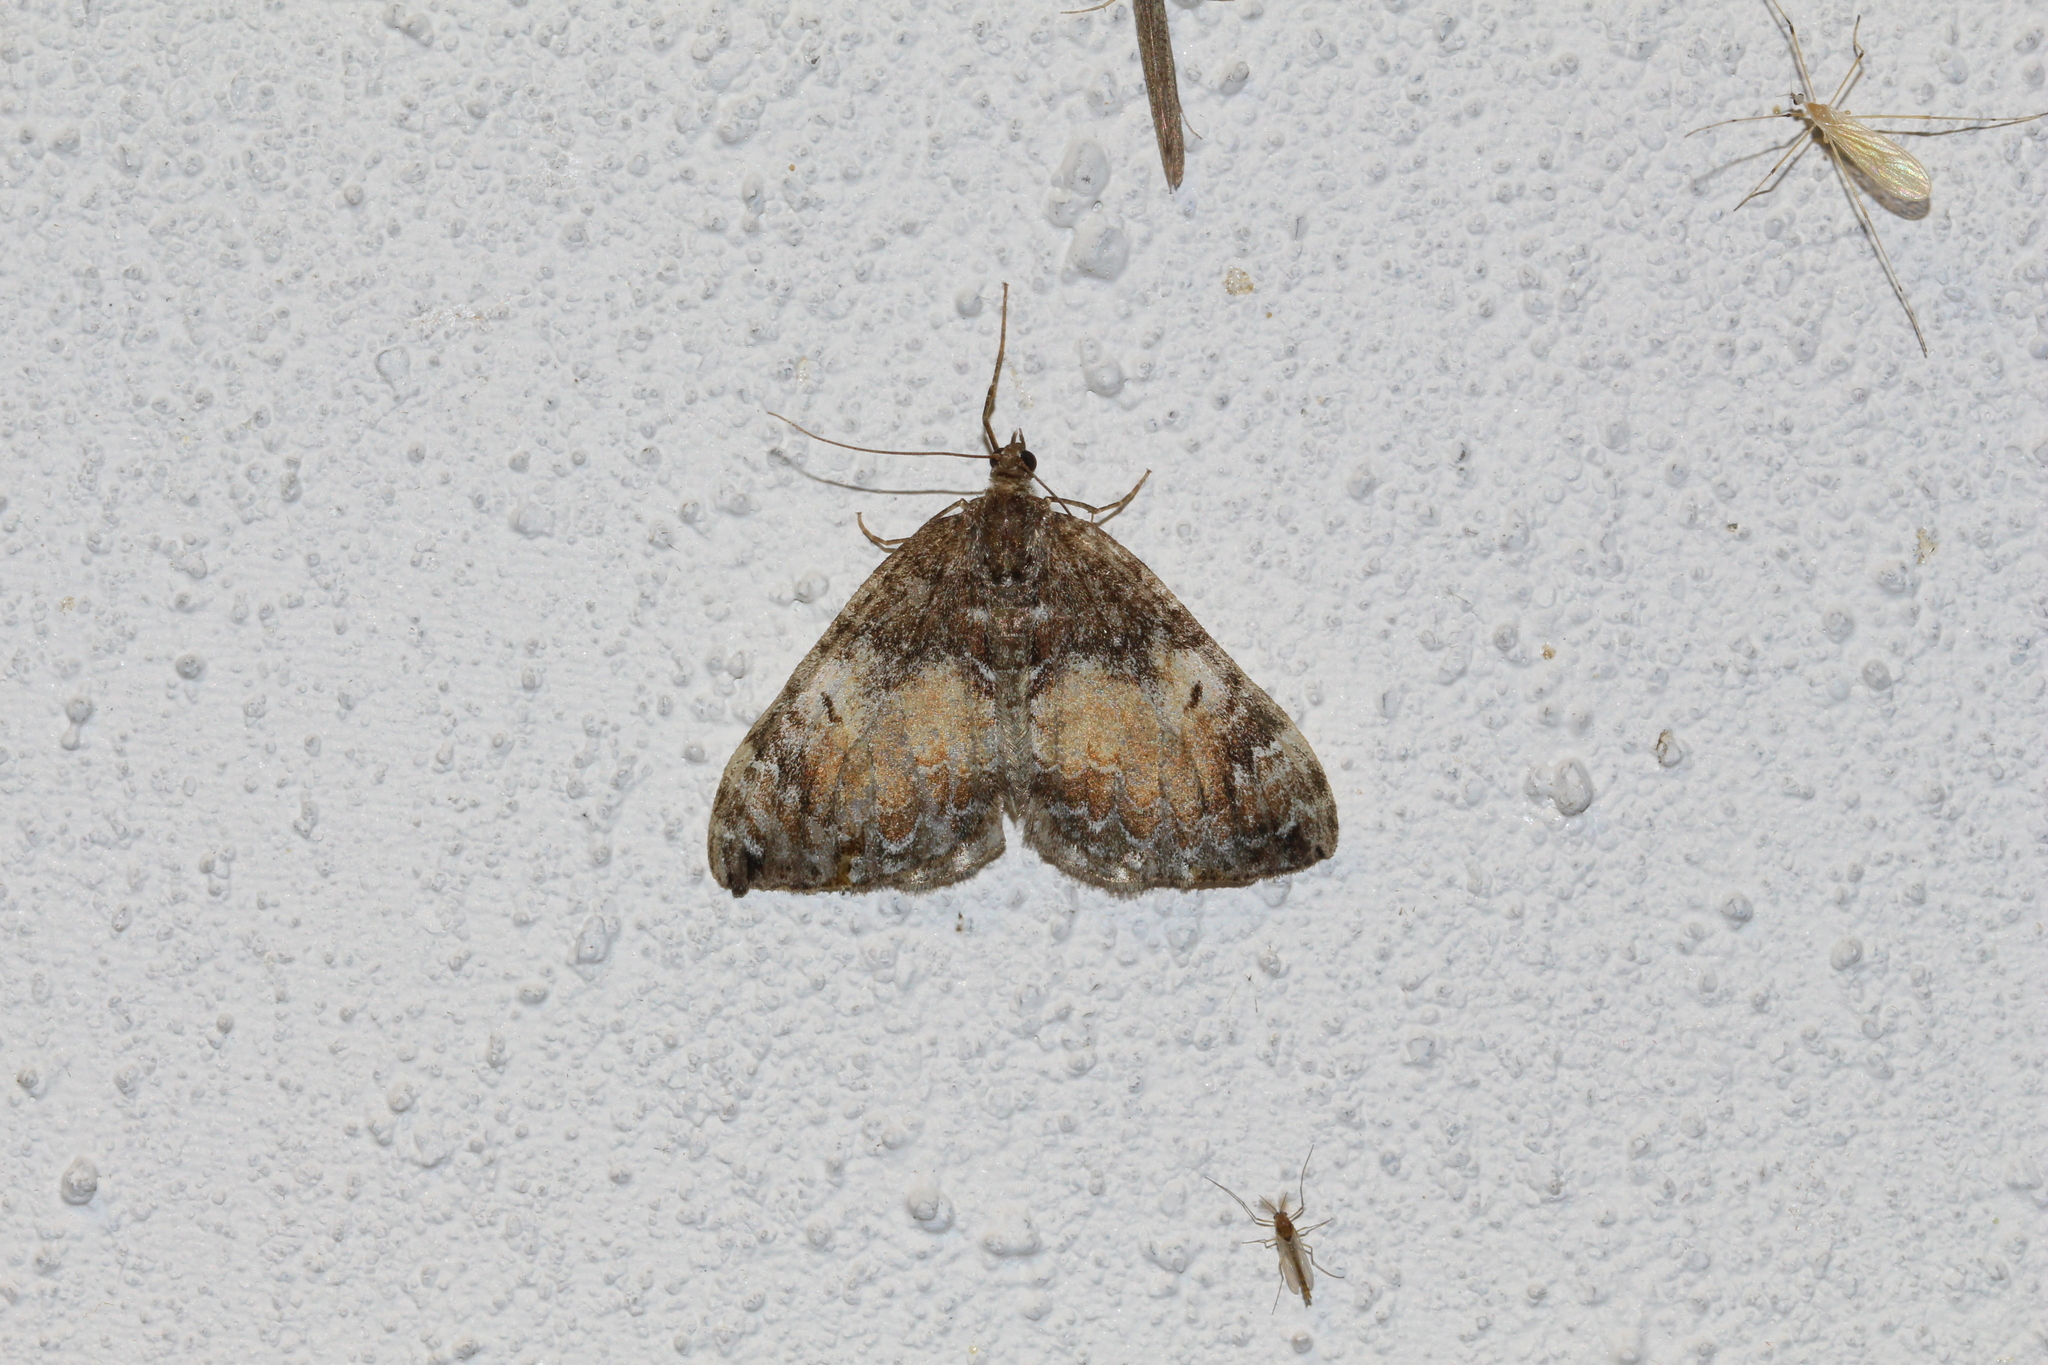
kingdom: Animalia
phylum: Arthropoda
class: Insecta
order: Lepidoptera
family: Geometridae
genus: Dysstroma
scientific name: Dysstroma truncata
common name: Common marbled carpet
